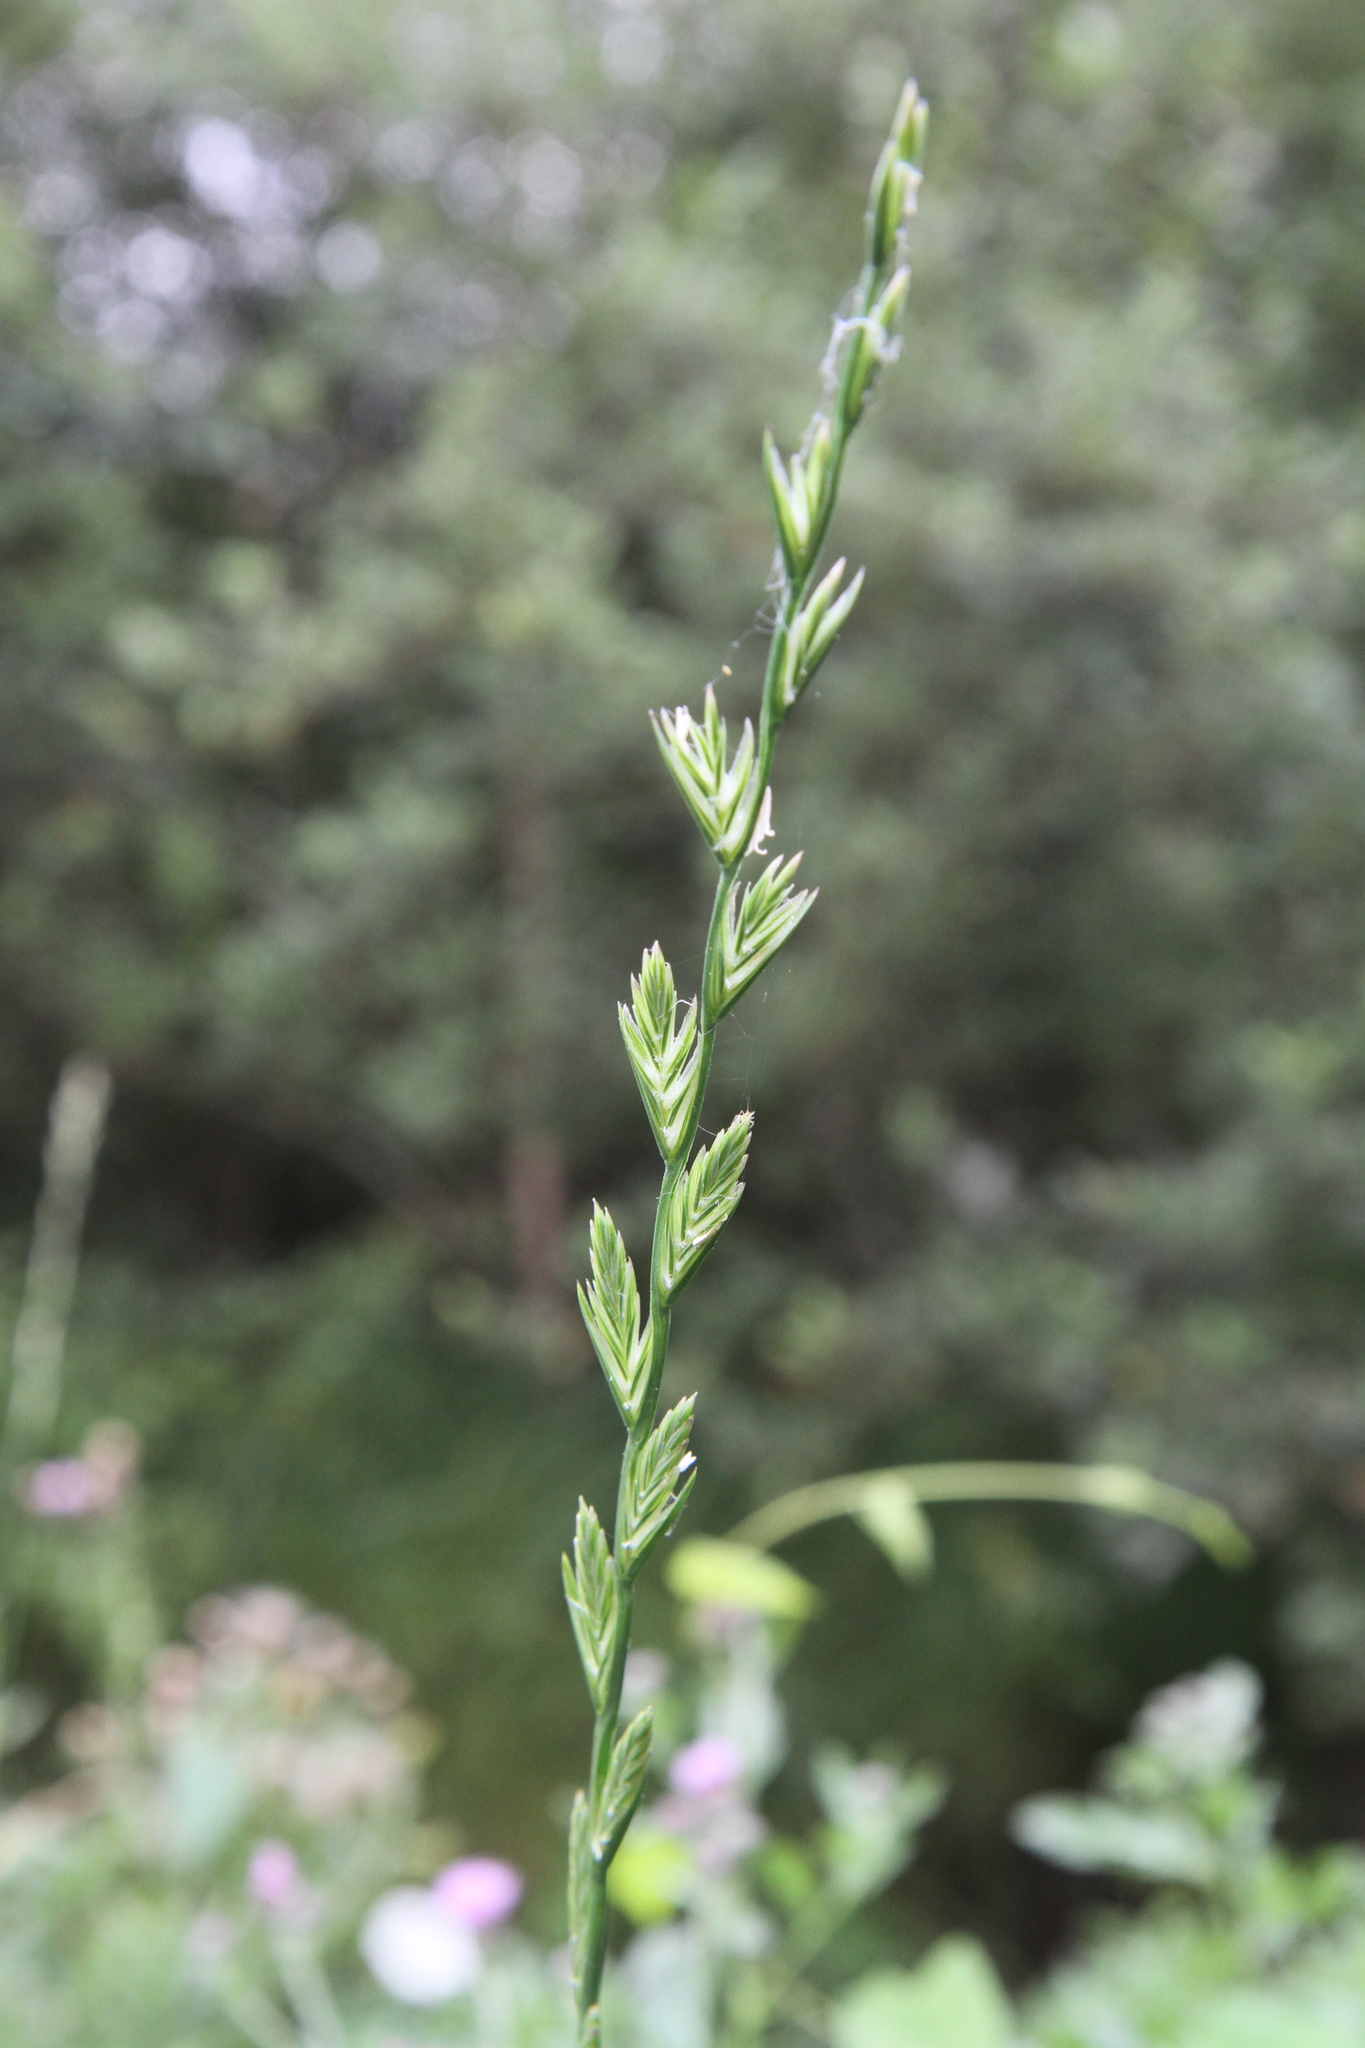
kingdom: Plantae
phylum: Tracheophyta
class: Liliopsida
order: Poales
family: Poaceae
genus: Lolium
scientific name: Lolium perenne
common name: Perennial ryegrass
